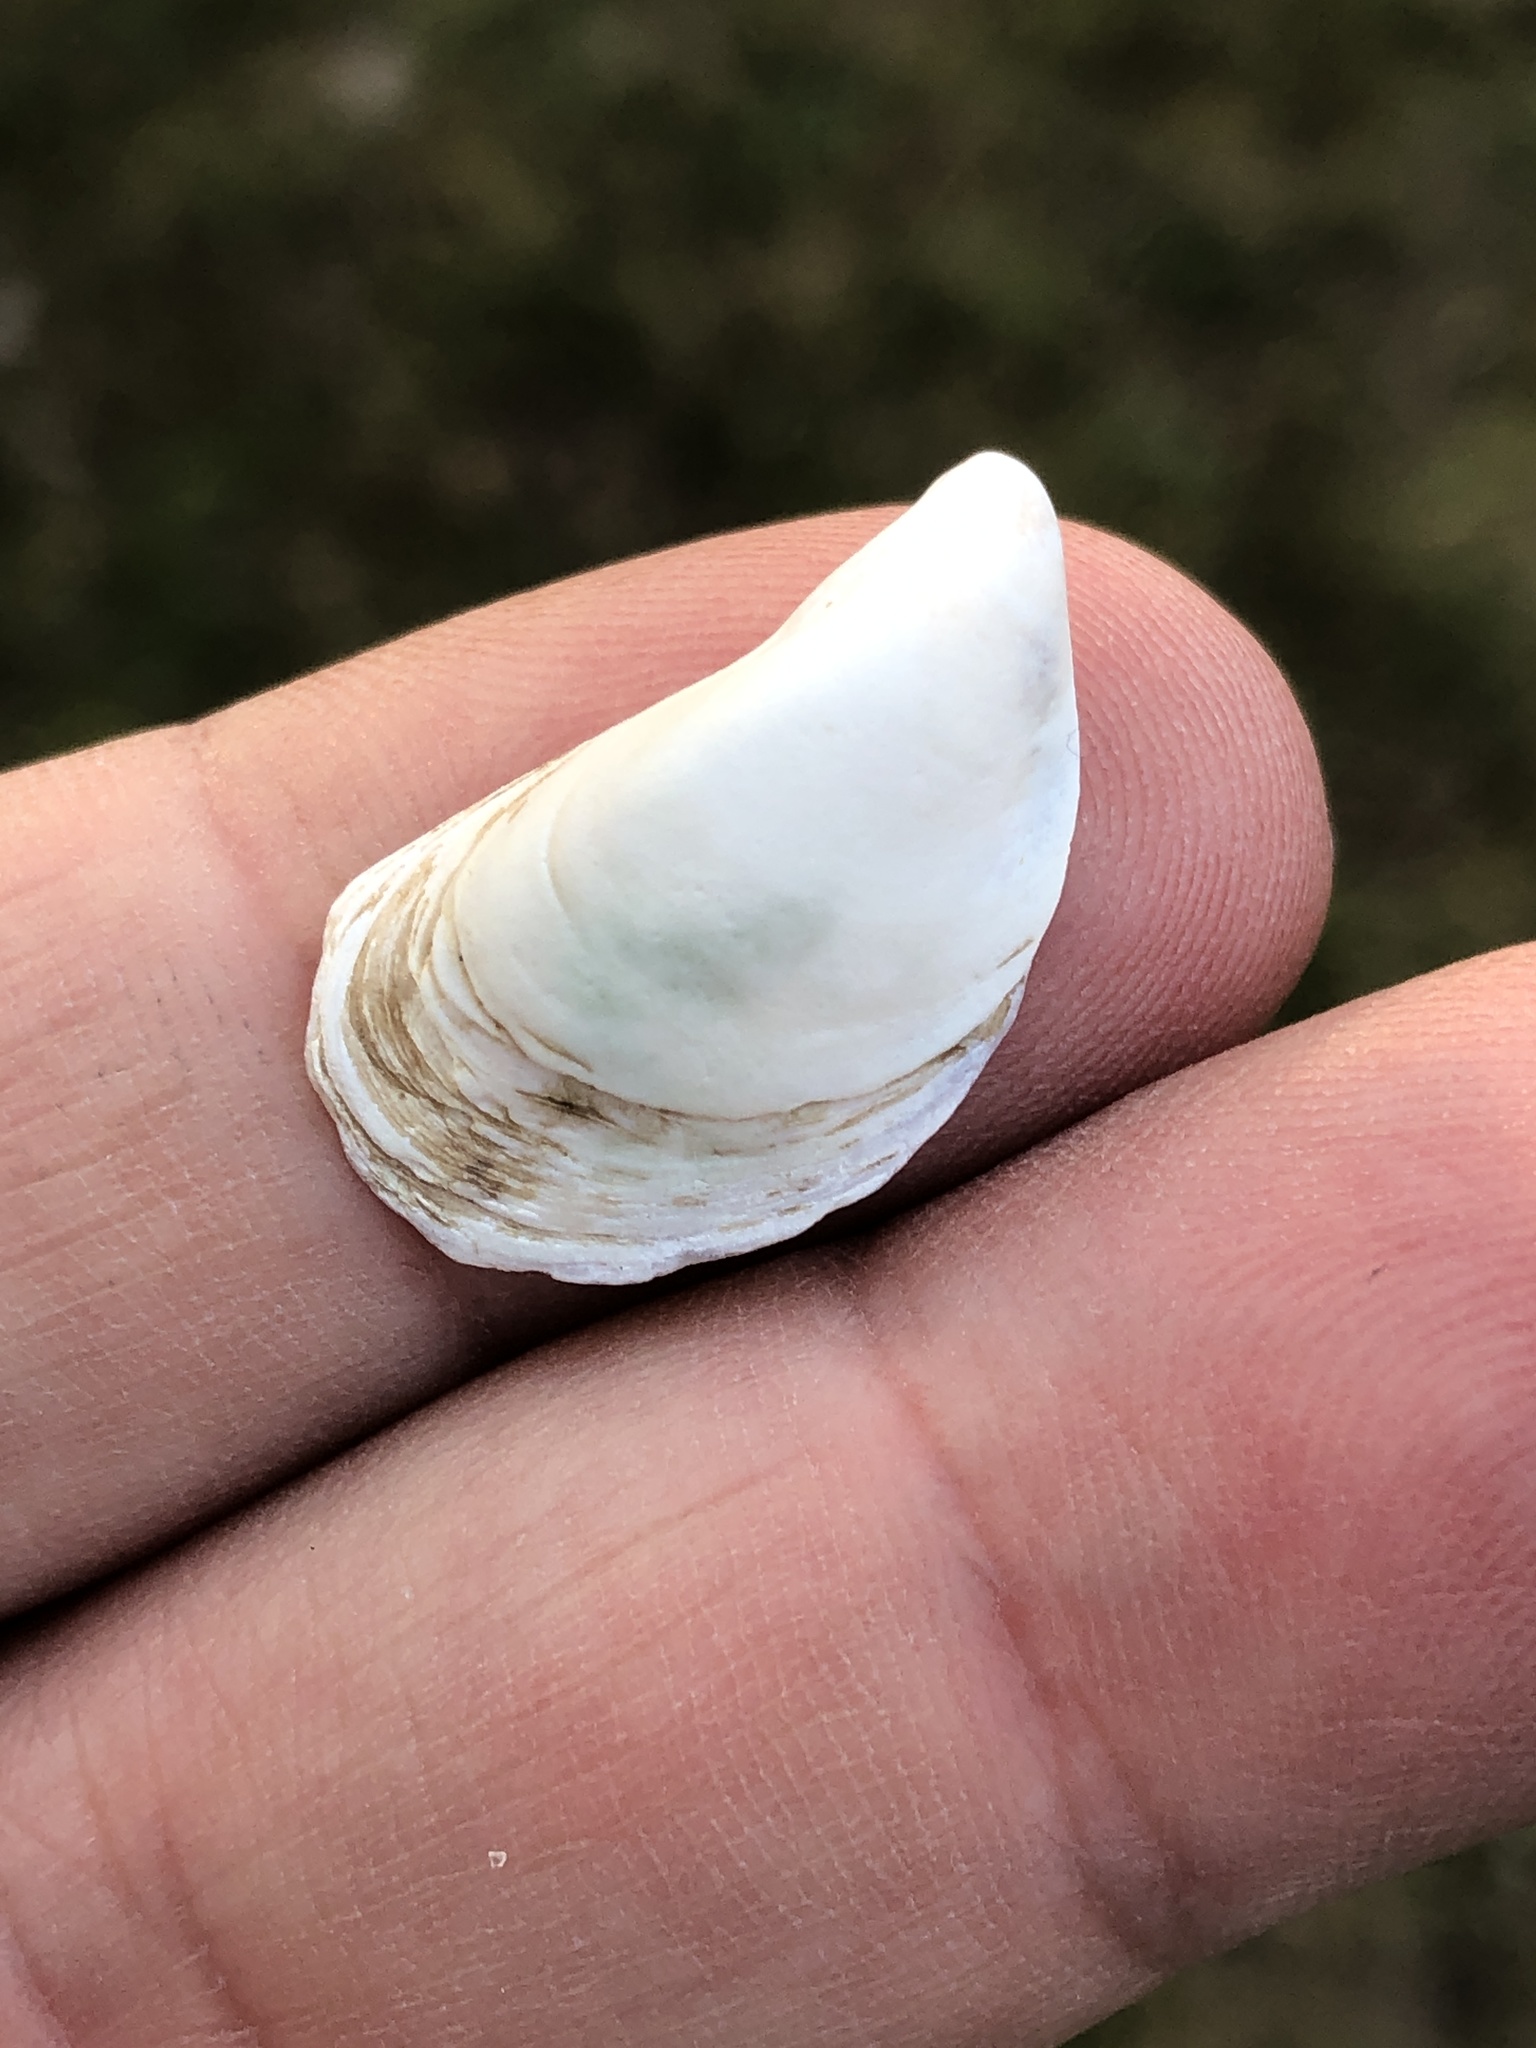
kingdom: Animalia
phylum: Mollusca
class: Bivalvia
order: Myida
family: Dreissenidae
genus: Dreissena
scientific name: Dreissena bugensis
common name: Quagga mussel
